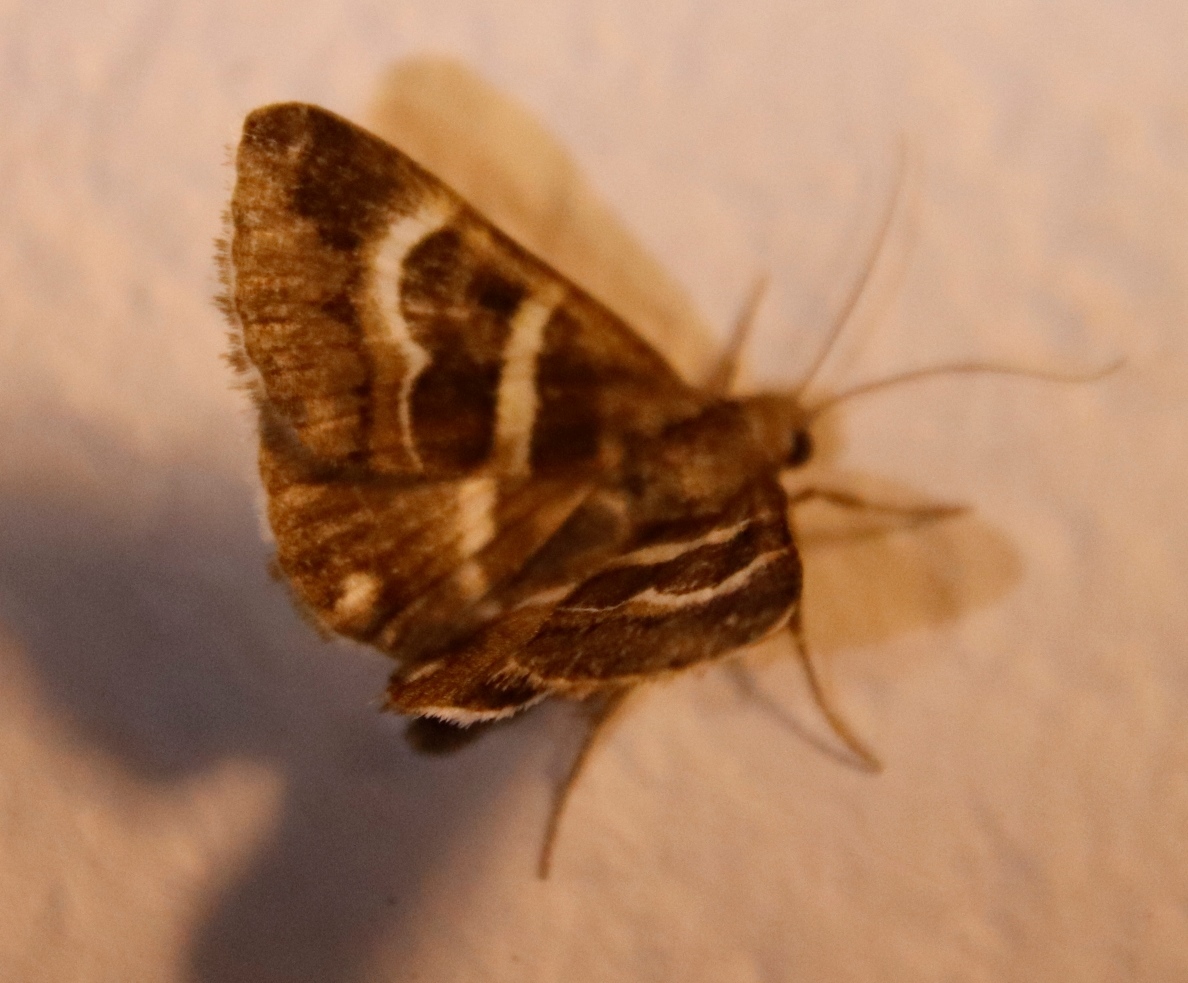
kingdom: Animalia
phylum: Arthropoda
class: Insecta
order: Lepidoptera
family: Erebidae
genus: Grammodes
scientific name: Grammodes stolida
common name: Geometrician
